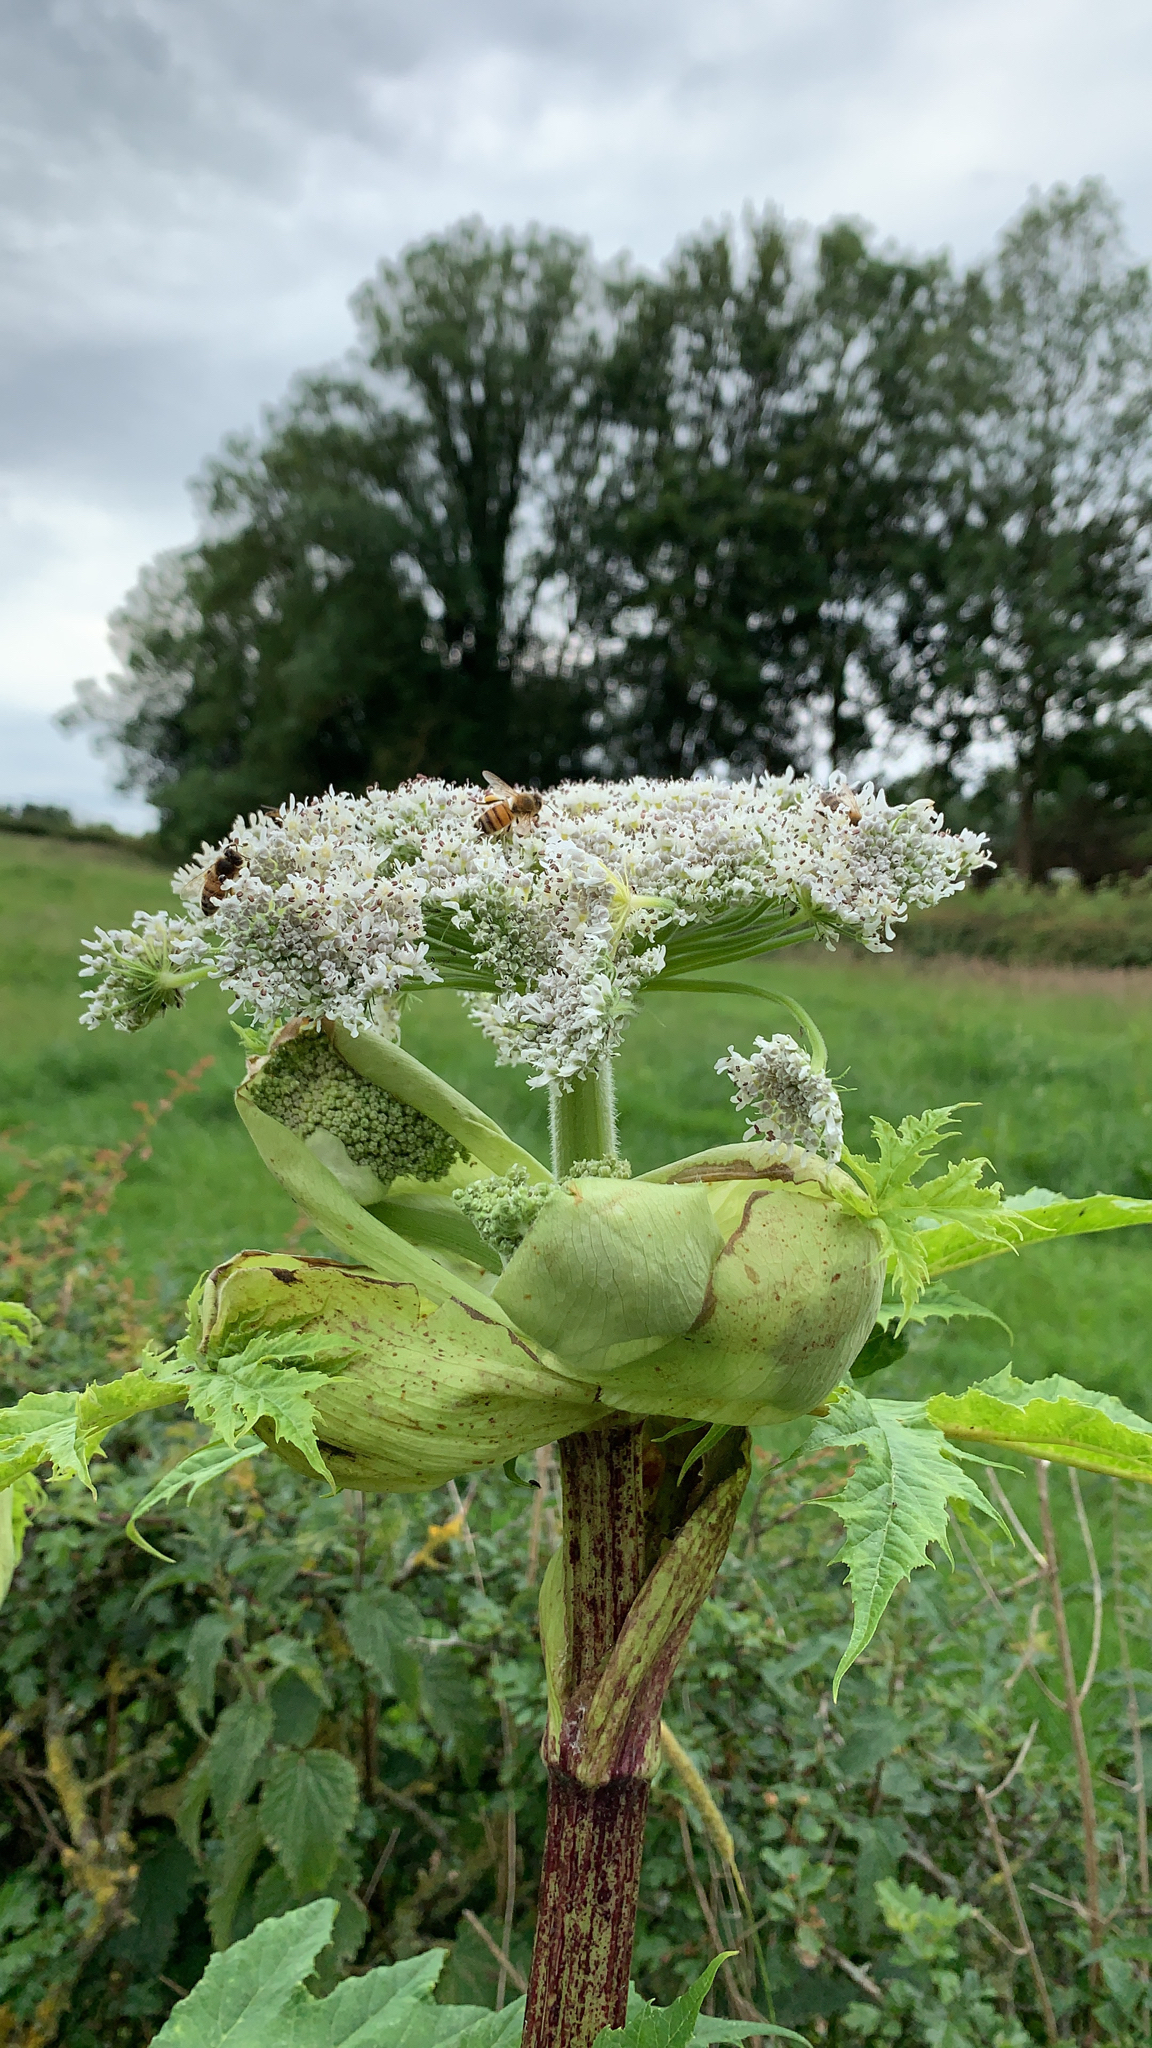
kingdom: Plantae
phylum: Tracheophyta
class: Magnoliopsida
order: Apiales
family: Apiaceae
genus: Heracleum
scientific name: Heracleum mantegazzianum
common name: Giant hogweed
